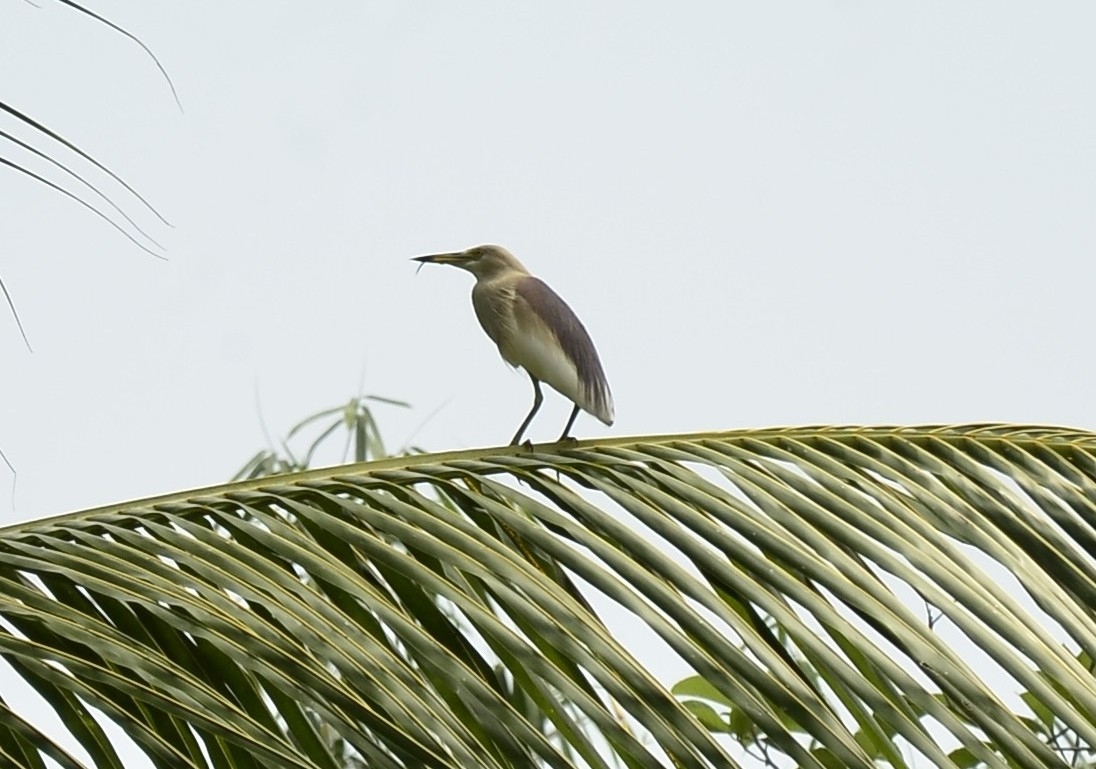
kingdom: Animalia
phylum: Chordata
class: Aves
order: Pelecaniformes
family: Ardeidae
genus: Ardeola
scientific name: Ardeola grayii
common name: Indian pond heron
